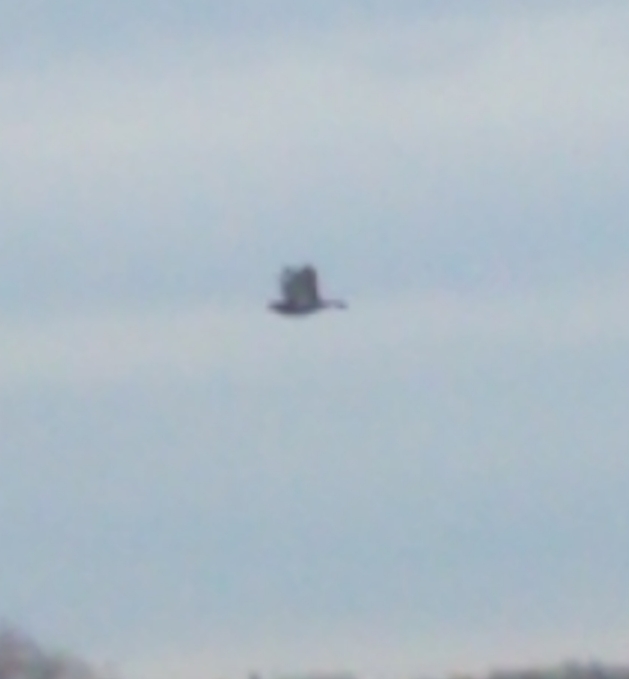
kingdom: Animalia
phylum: Chordata
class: Aves
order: Columbiformes
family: Columbidae
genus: Columba
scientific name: Columba livia
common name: Rock pigeon
